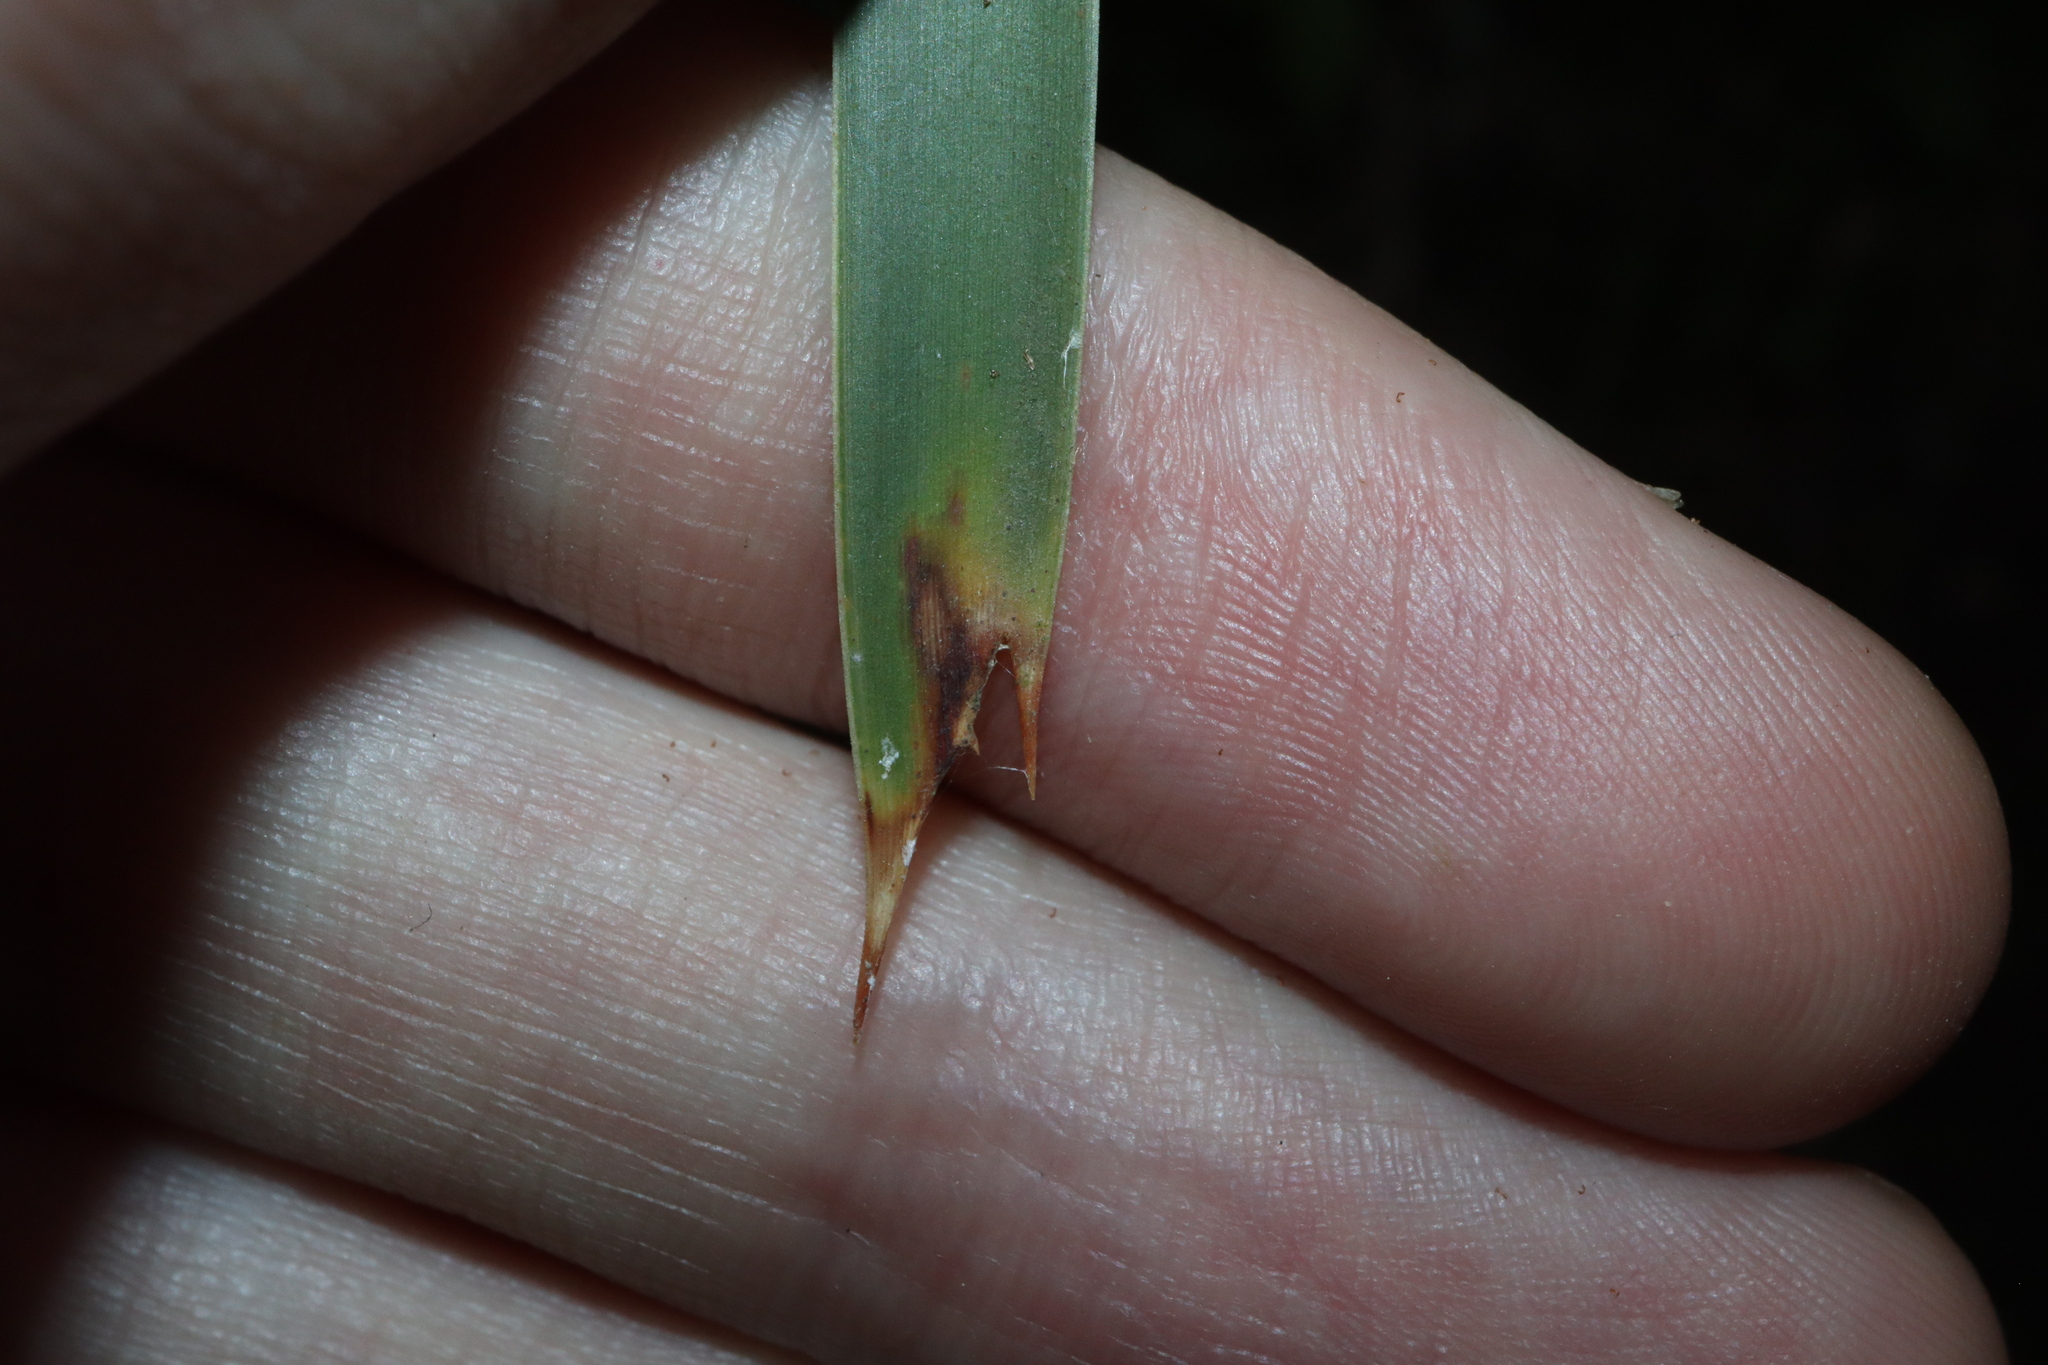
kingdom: Plantae
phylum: Tracheophyta
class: Liliopsida
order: Asparagales
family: Asparagaceae
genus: Lomandra
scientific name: Lomandra longifolia
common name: Longleaf mat-rush
